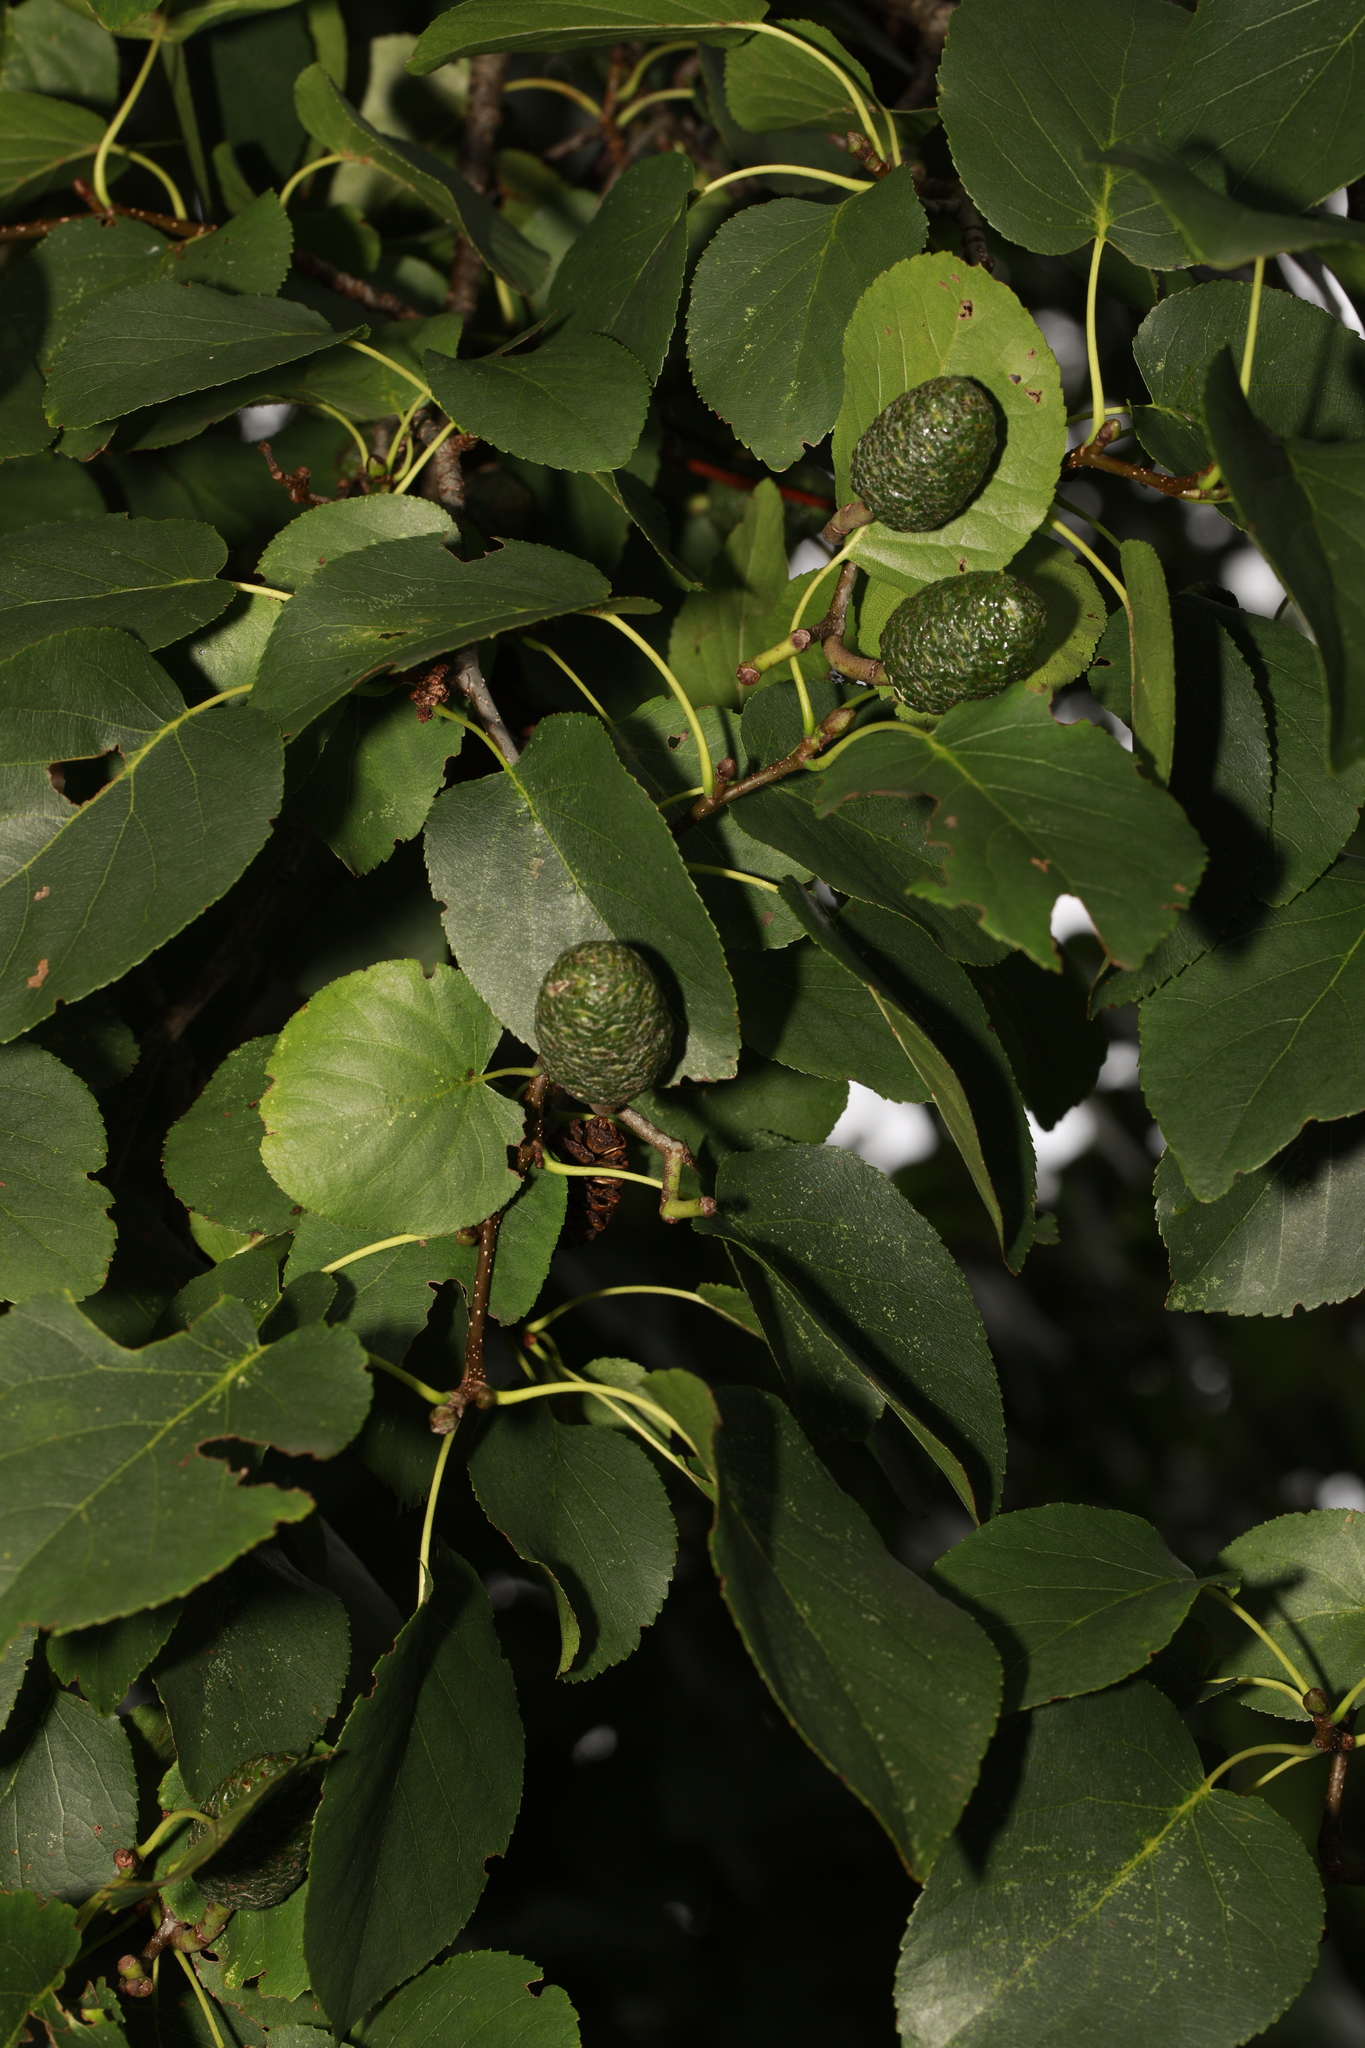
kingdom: Plantae
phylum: Tracheophyta
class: Magnoliopsida
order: Fagales
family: Betulaceae
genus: Alnus
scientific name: Alnus cordata
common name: Italian alder
